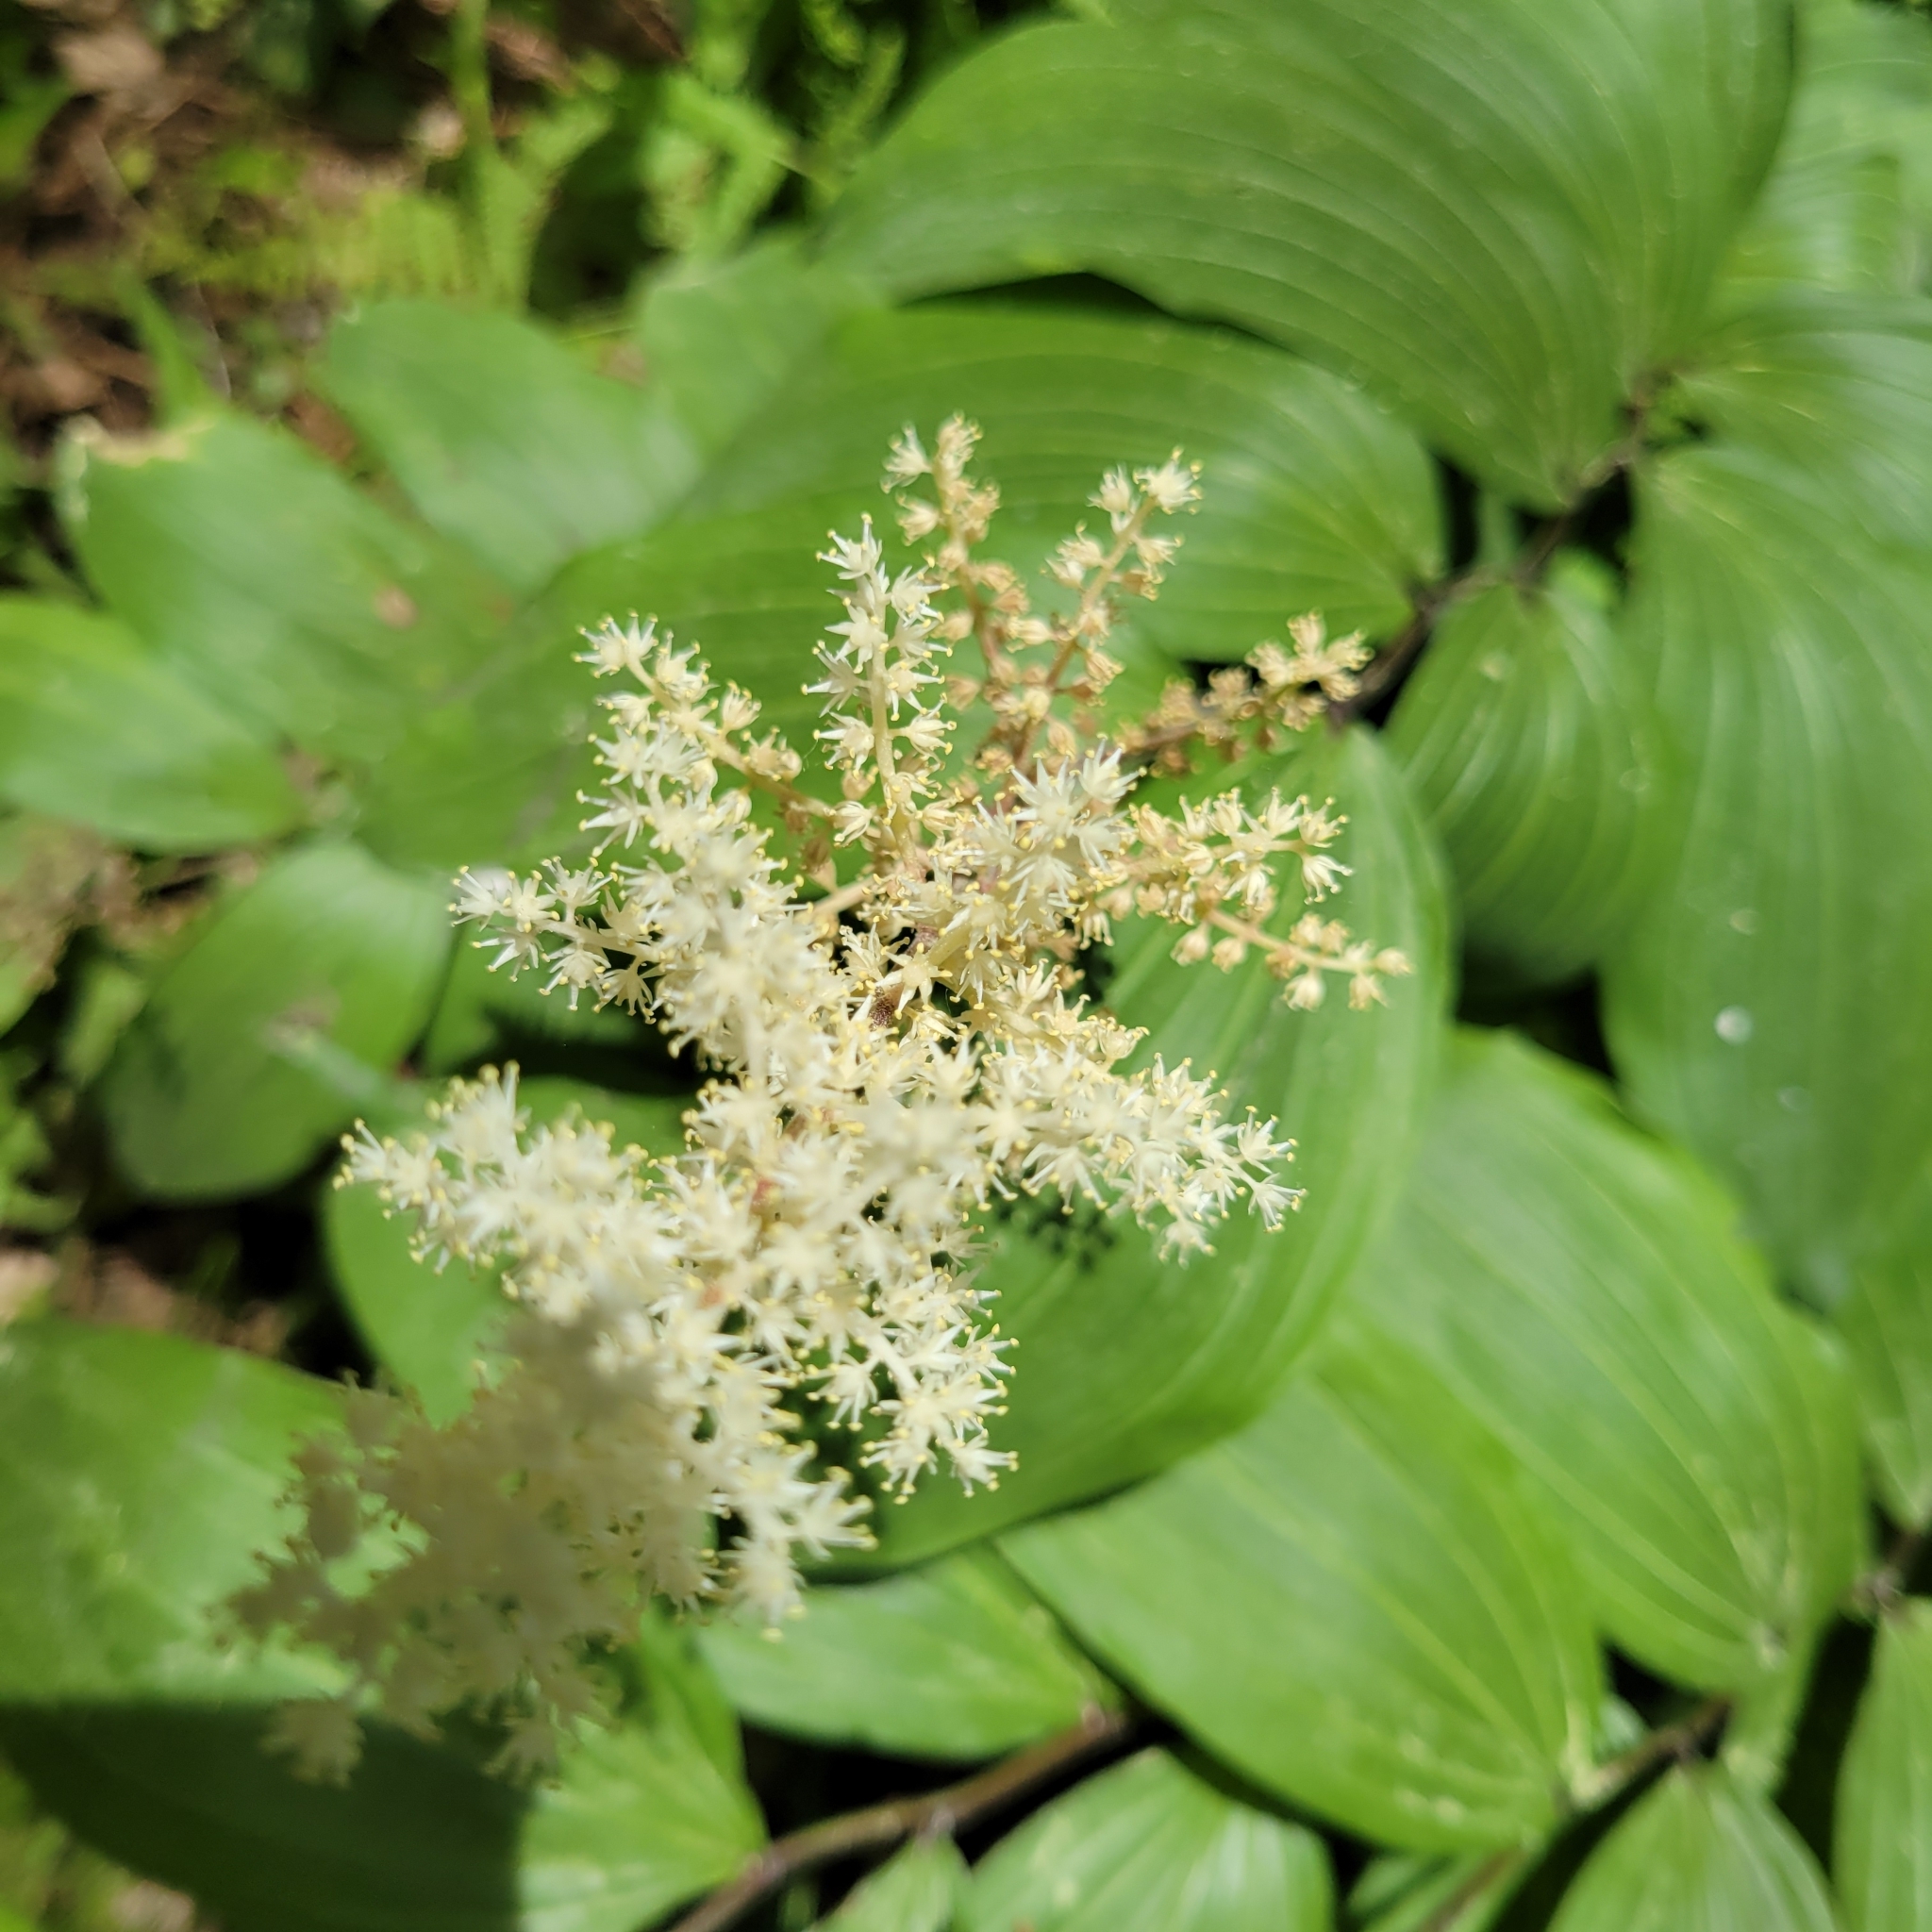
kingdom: Plantae
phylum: Tracheophyta
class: Liliopsida
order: Asparagales
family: Asparagaceae
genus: Maianthemum
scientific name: Maianthemum racemosum
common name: False spikenard
